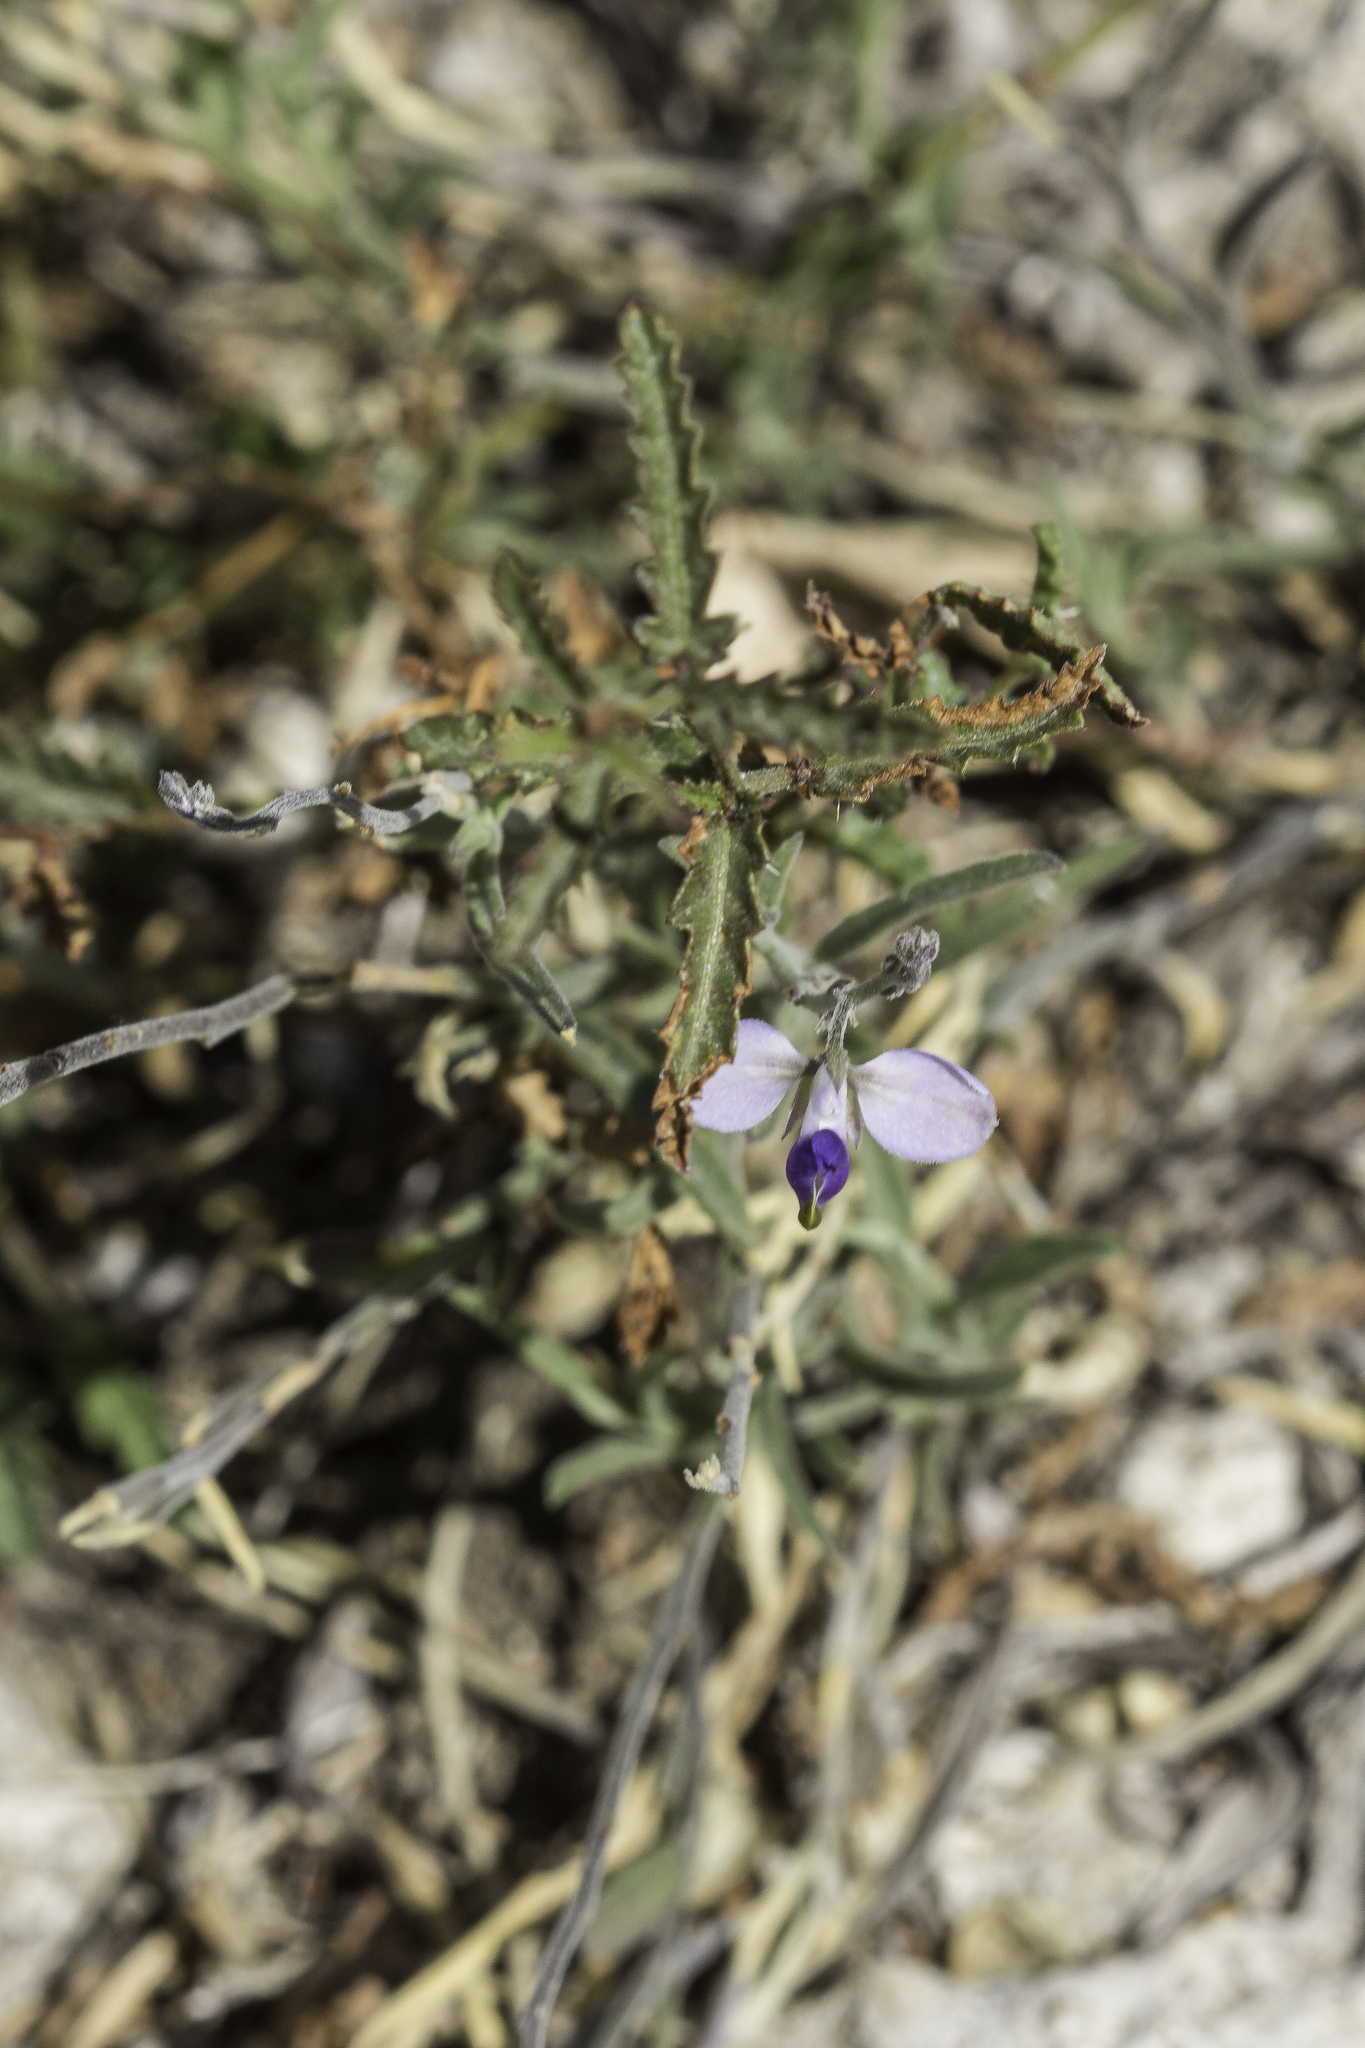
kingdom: Plantae
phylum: Tracheophyta
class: Magnoliopsida
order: Fabales
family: Polygalaceae
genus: Hebecarpa
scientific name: Hebecarpa barbeyana
